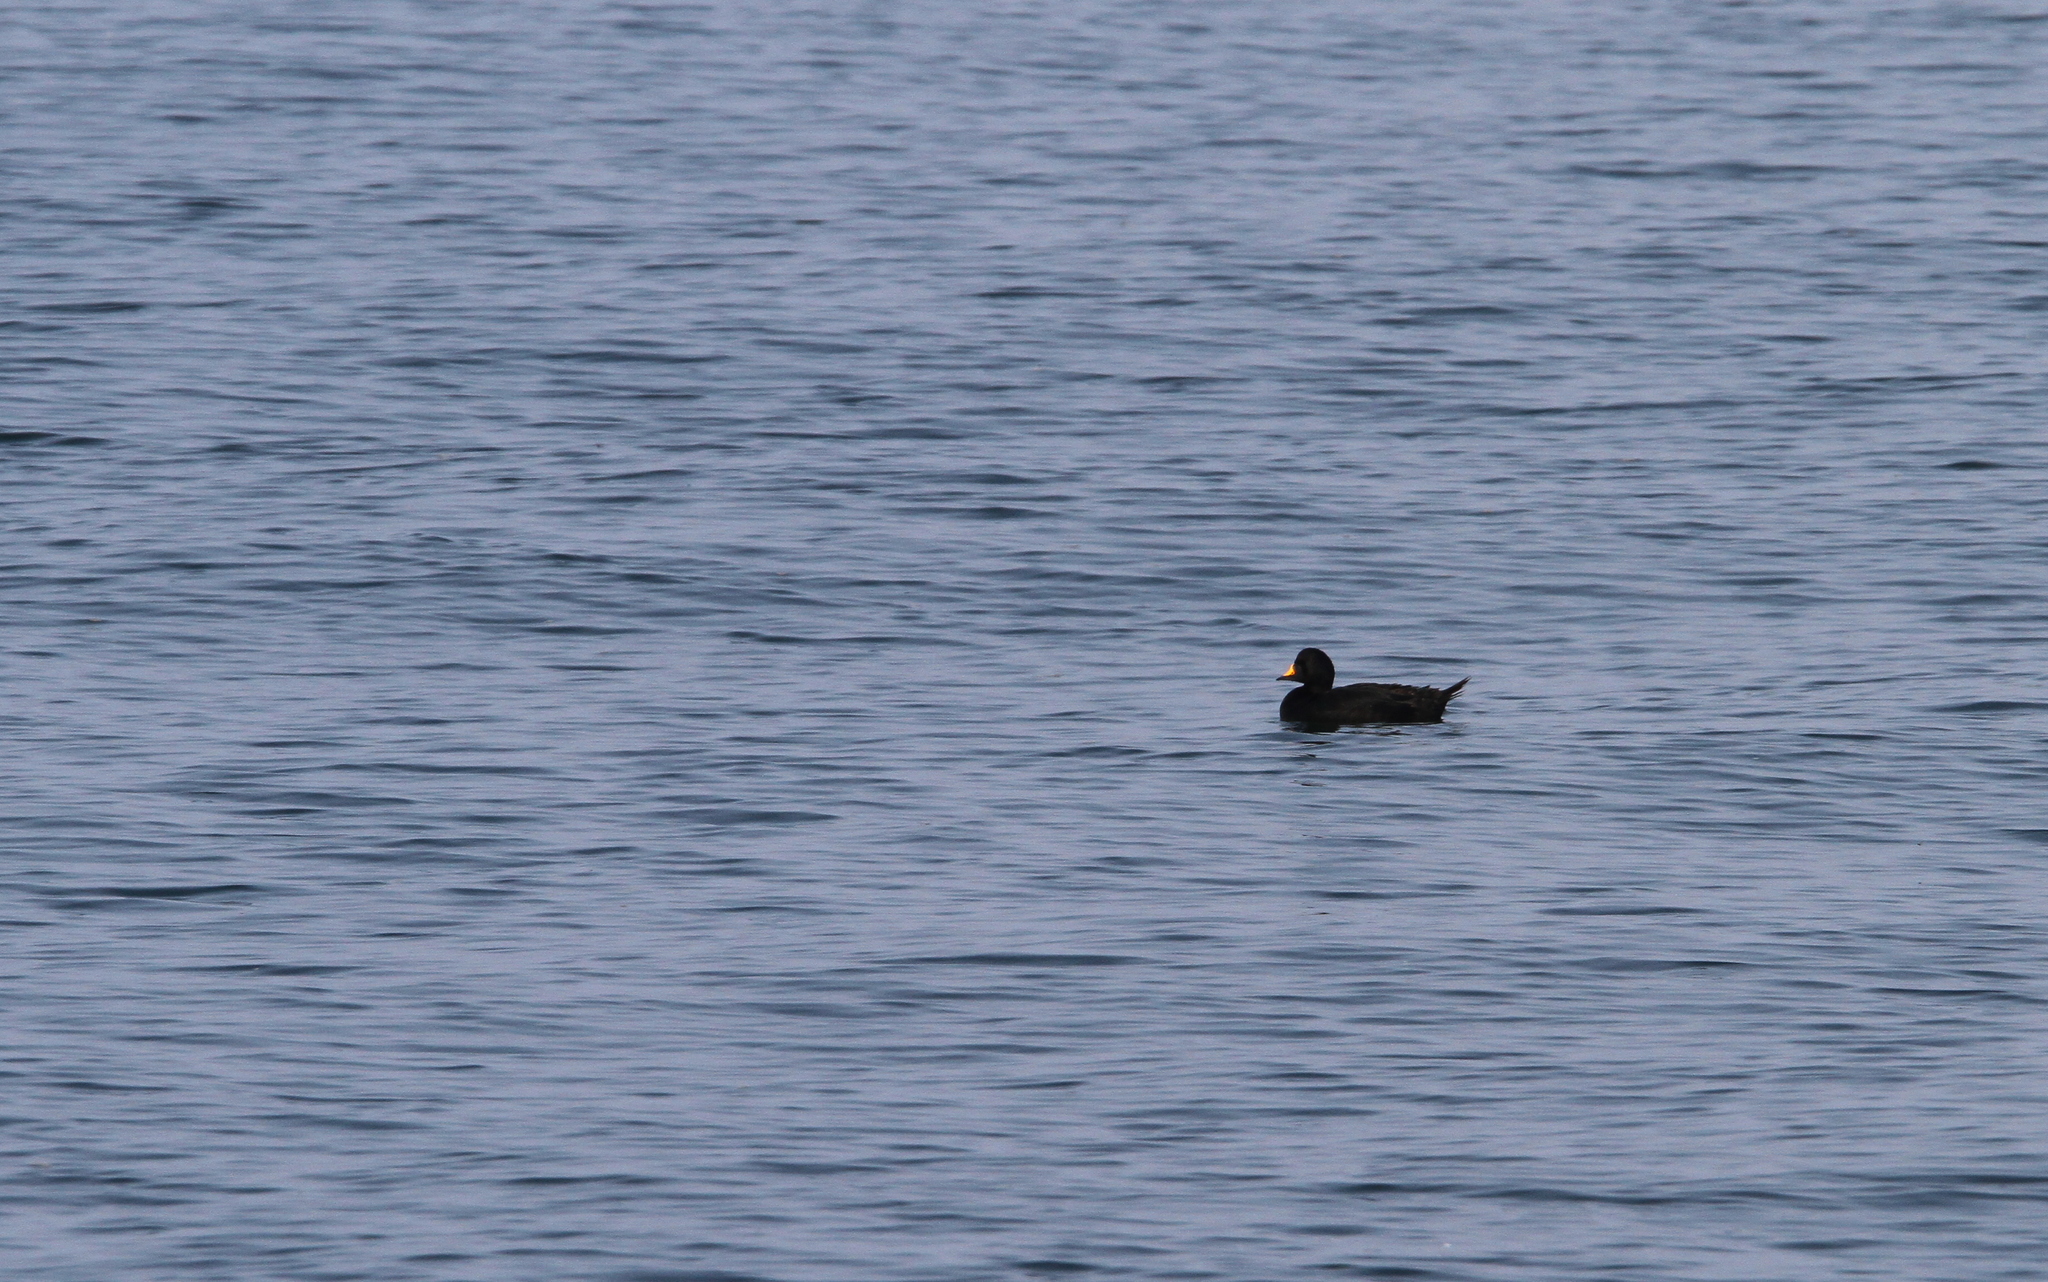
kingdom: Animalia
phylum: Chordata
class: Aves
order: Anseriformes
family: Anatidae
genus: Melanitta
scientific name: Melanitta nigra
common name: Common scoter
